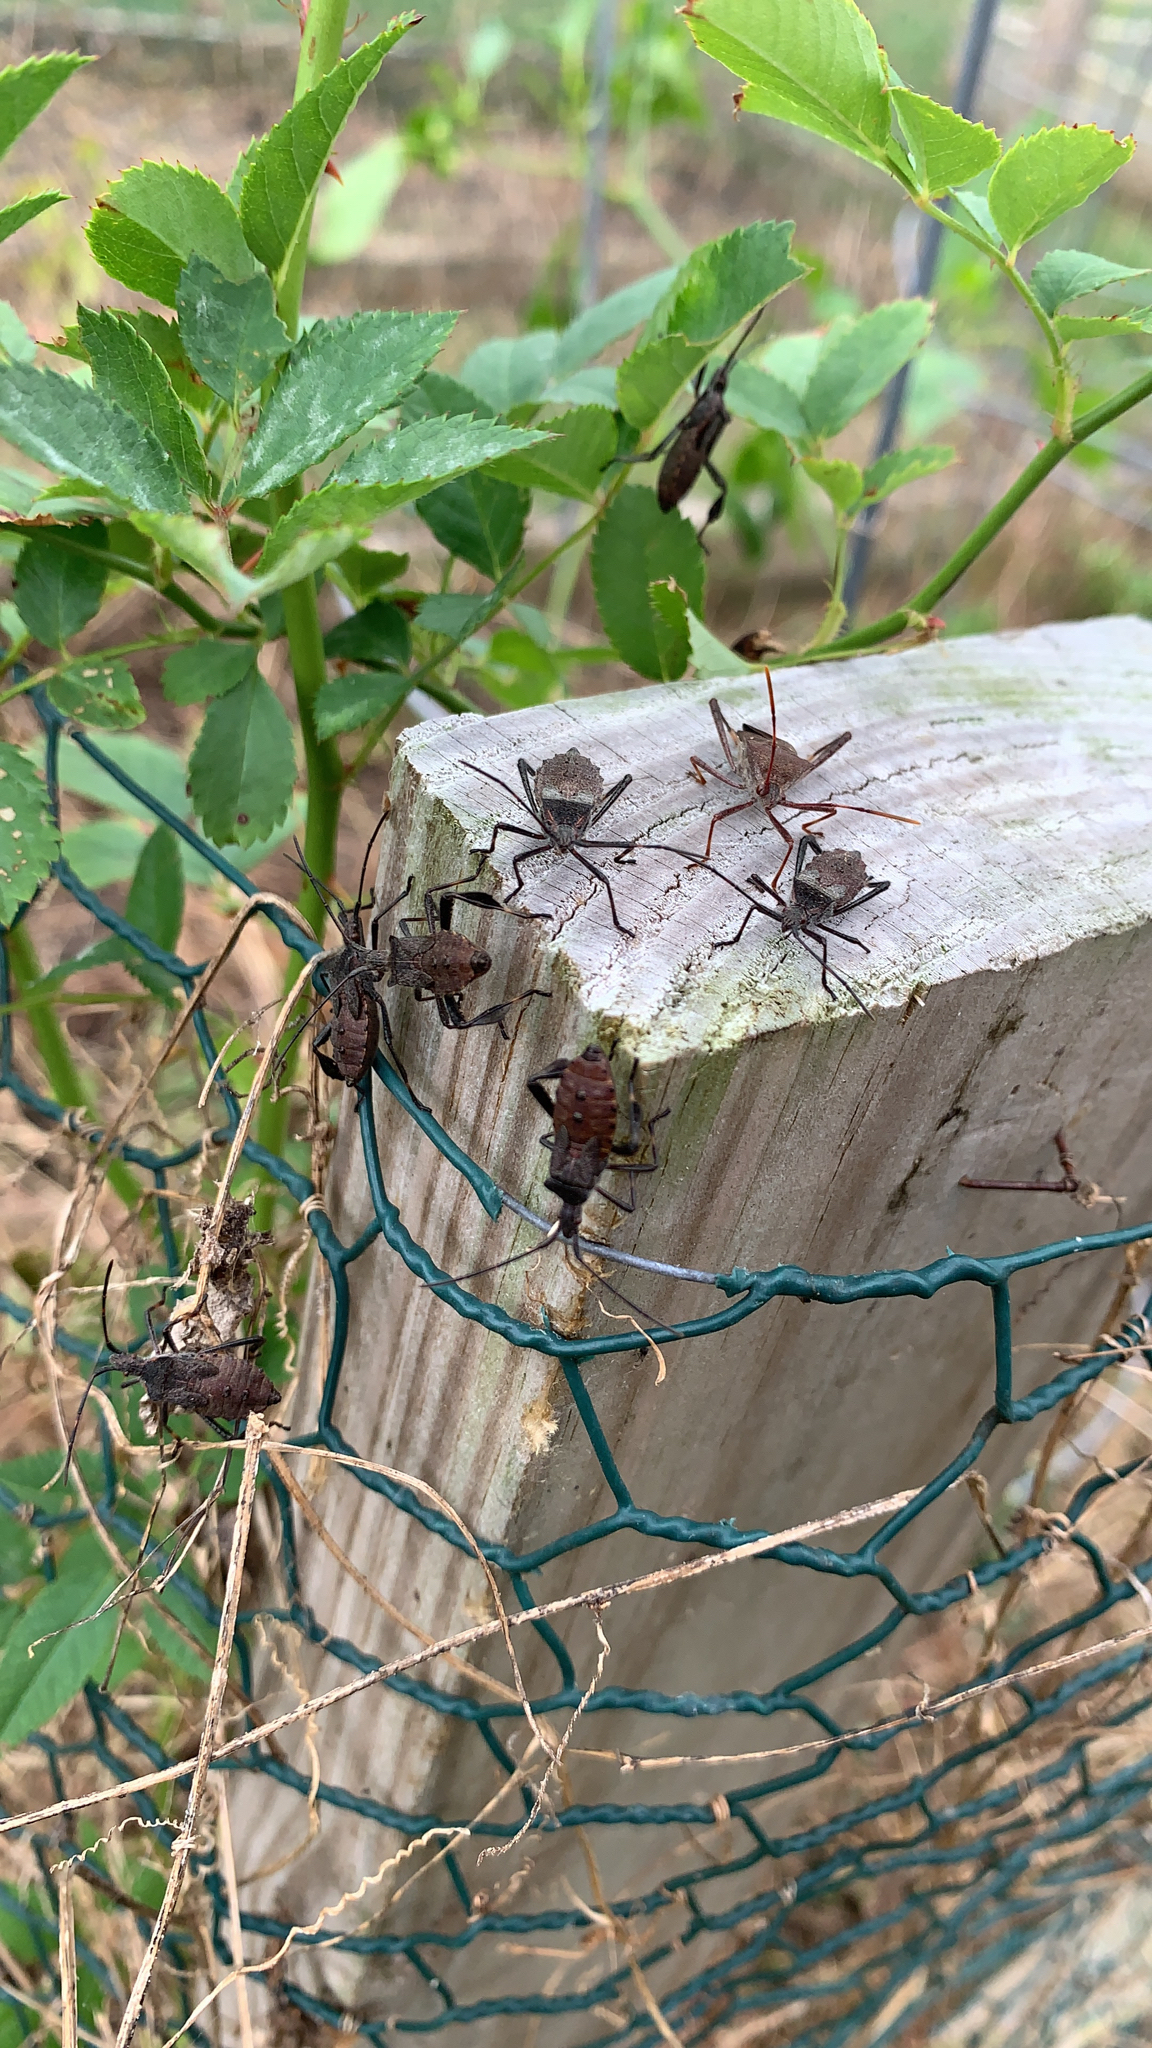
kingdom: Animalia
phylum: Arthropoda
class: Insecta
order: Hemiptera
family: Coreidae
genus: Leptoglossus
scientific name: Leptoglossus oppositus
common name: Northern leaf-footed bug
